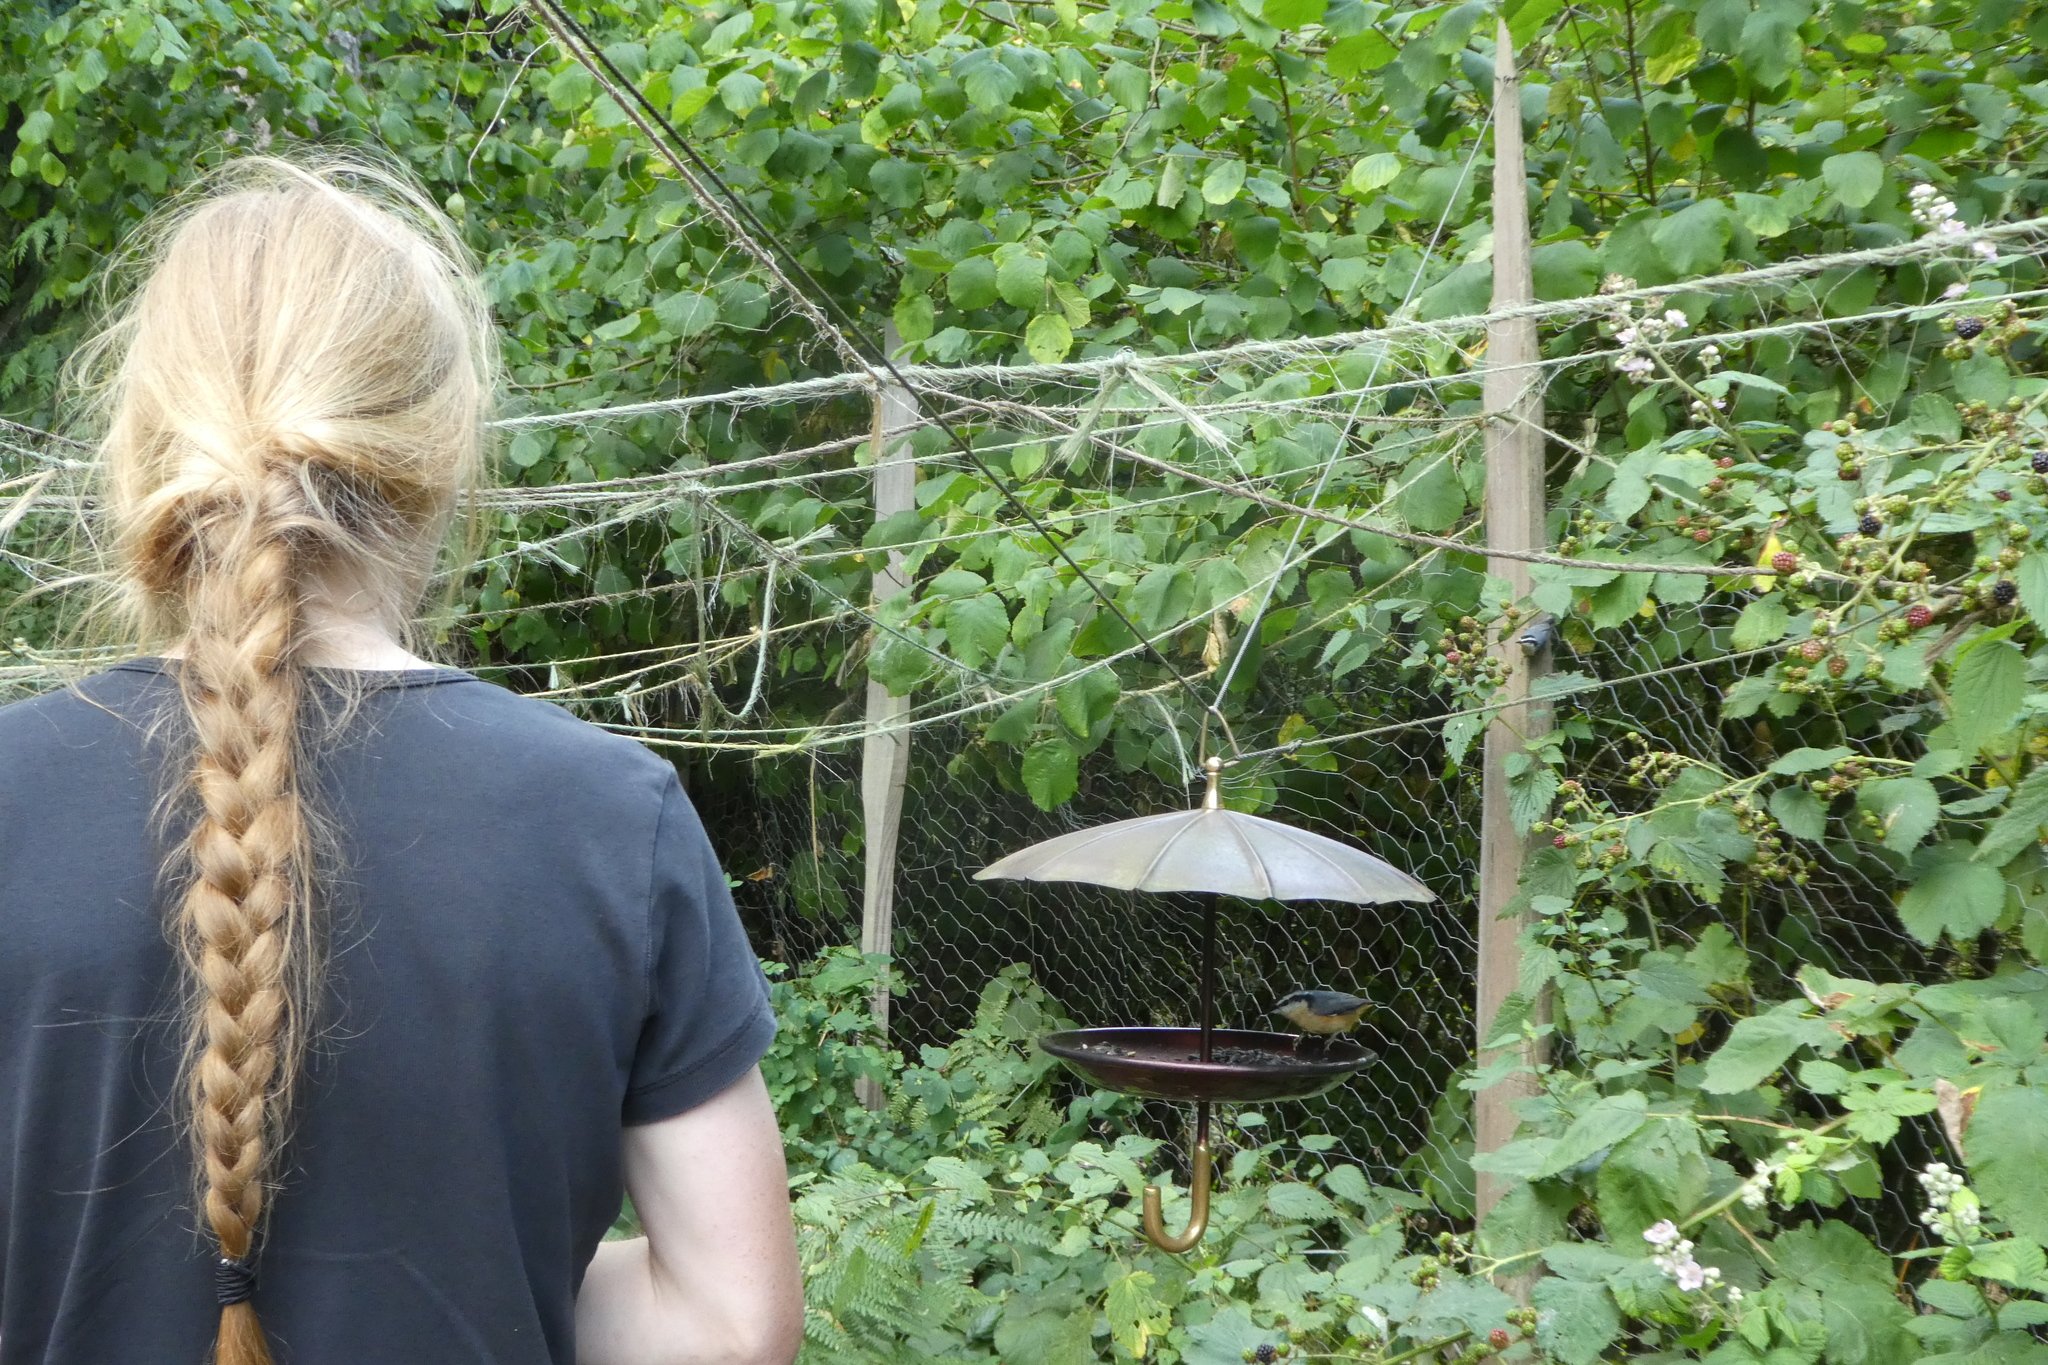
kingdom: Animalia
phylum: Chordata
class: Aves
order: Passeriformes
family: Sittidae
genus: Sitta
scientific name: Sitta canadensis
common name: Red-breasted nuthatch
